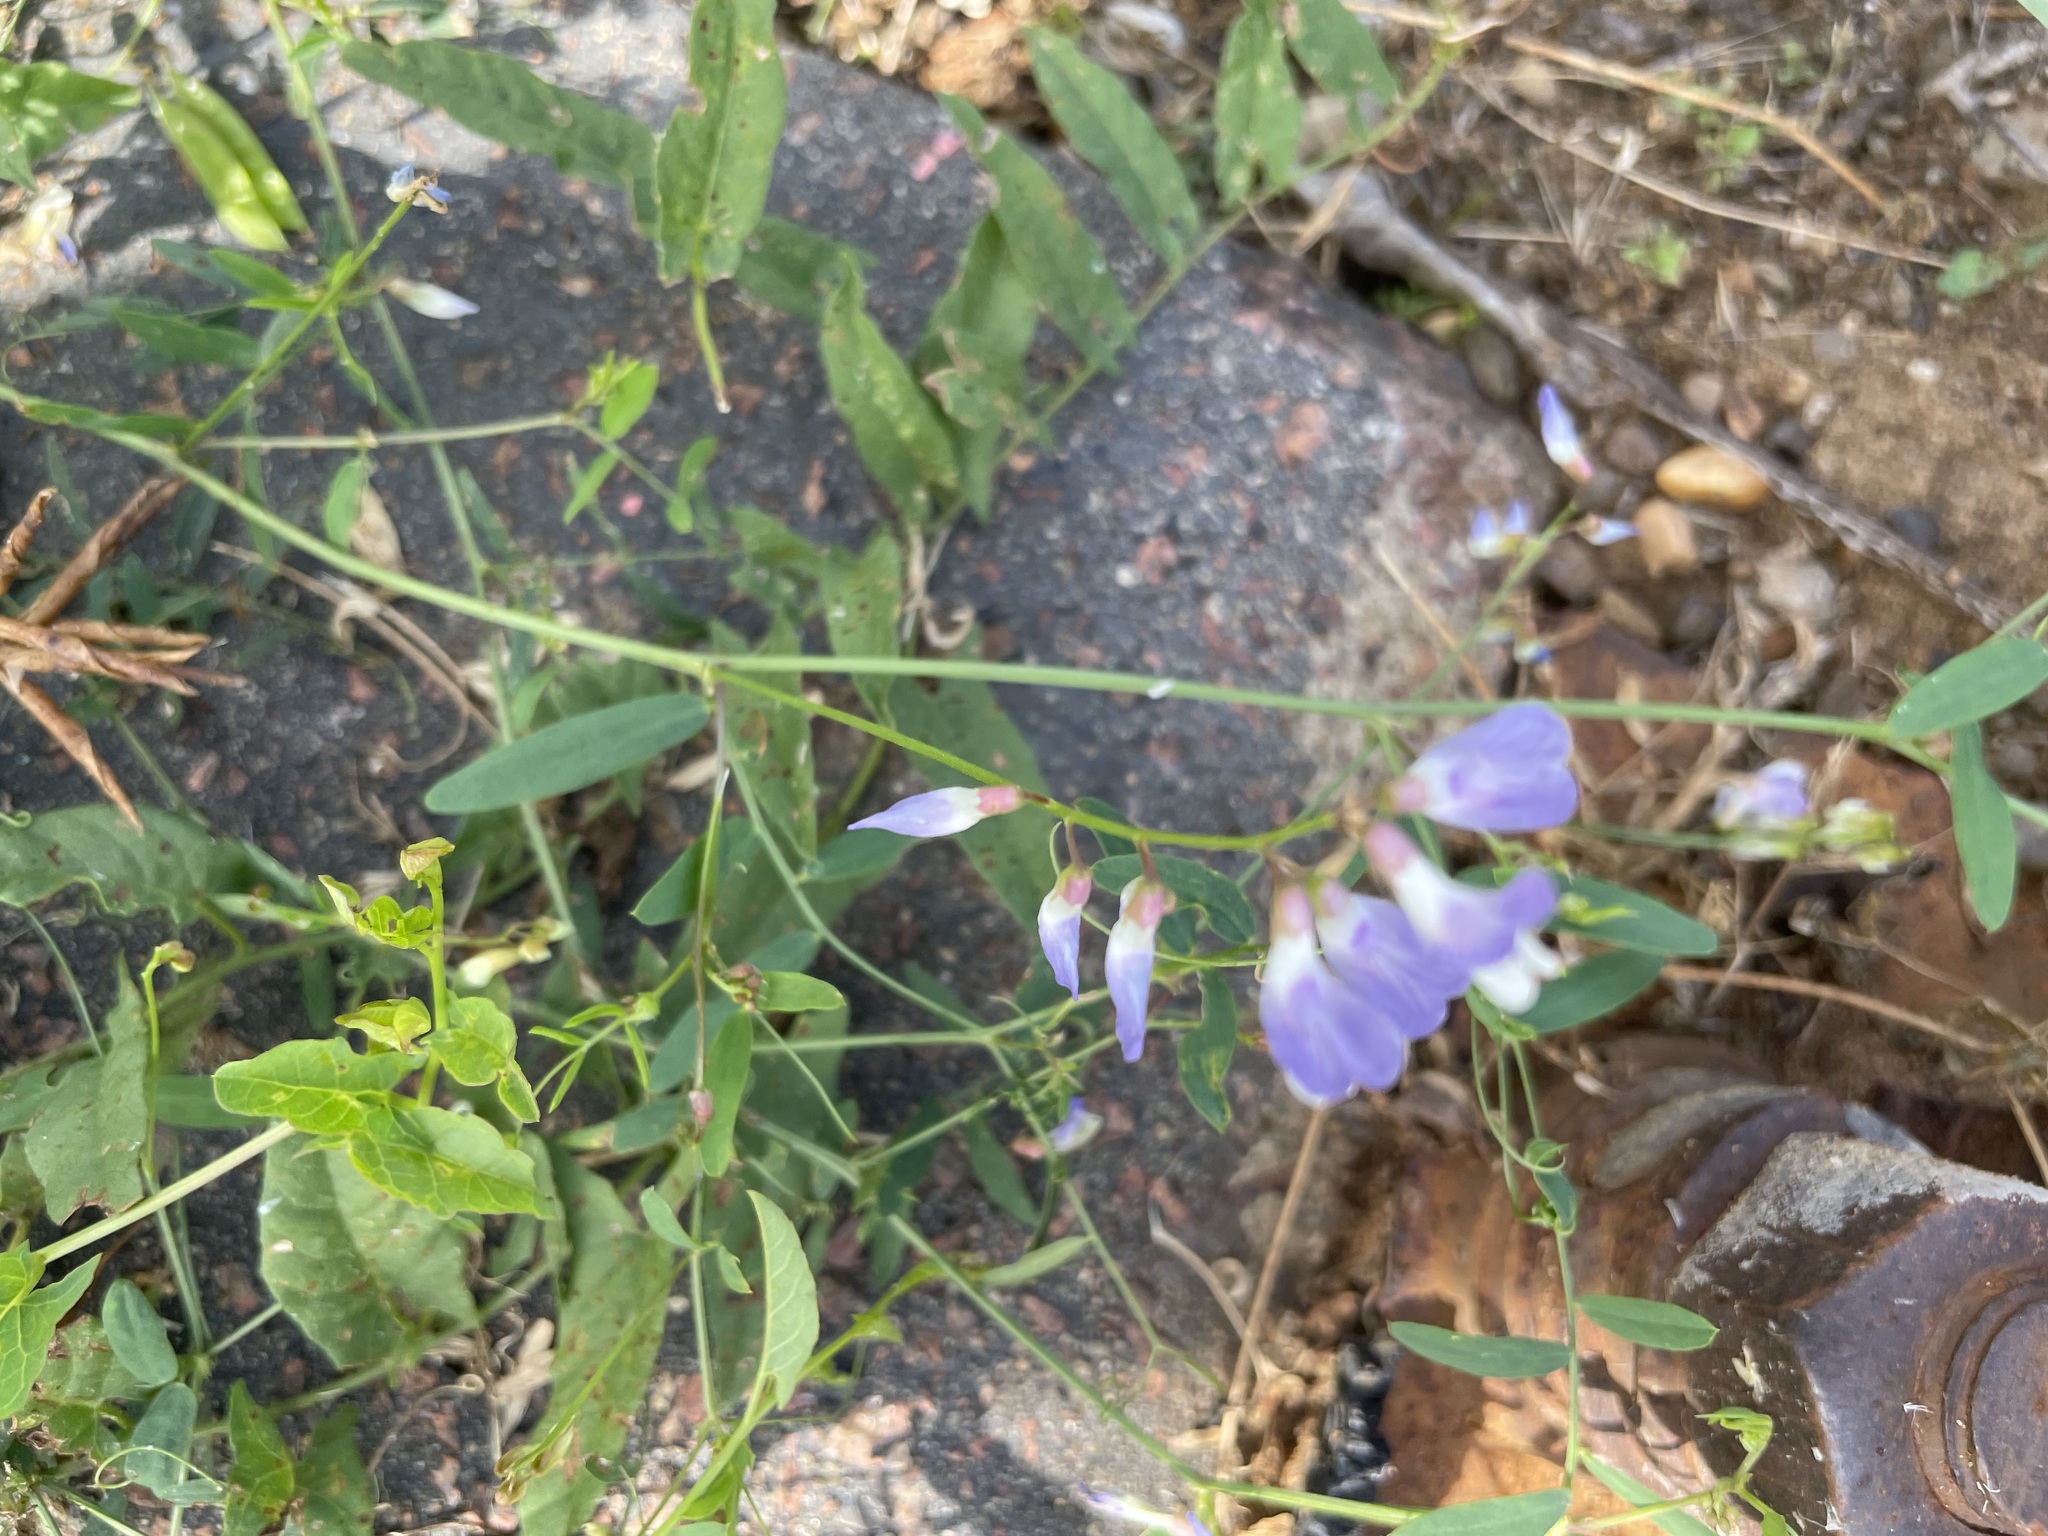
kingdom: Plantae
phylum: Tracheophyta
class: Magnoliopsida
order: Fabales
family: Fabaceae
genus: Vicia
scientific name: Vicia biennis
